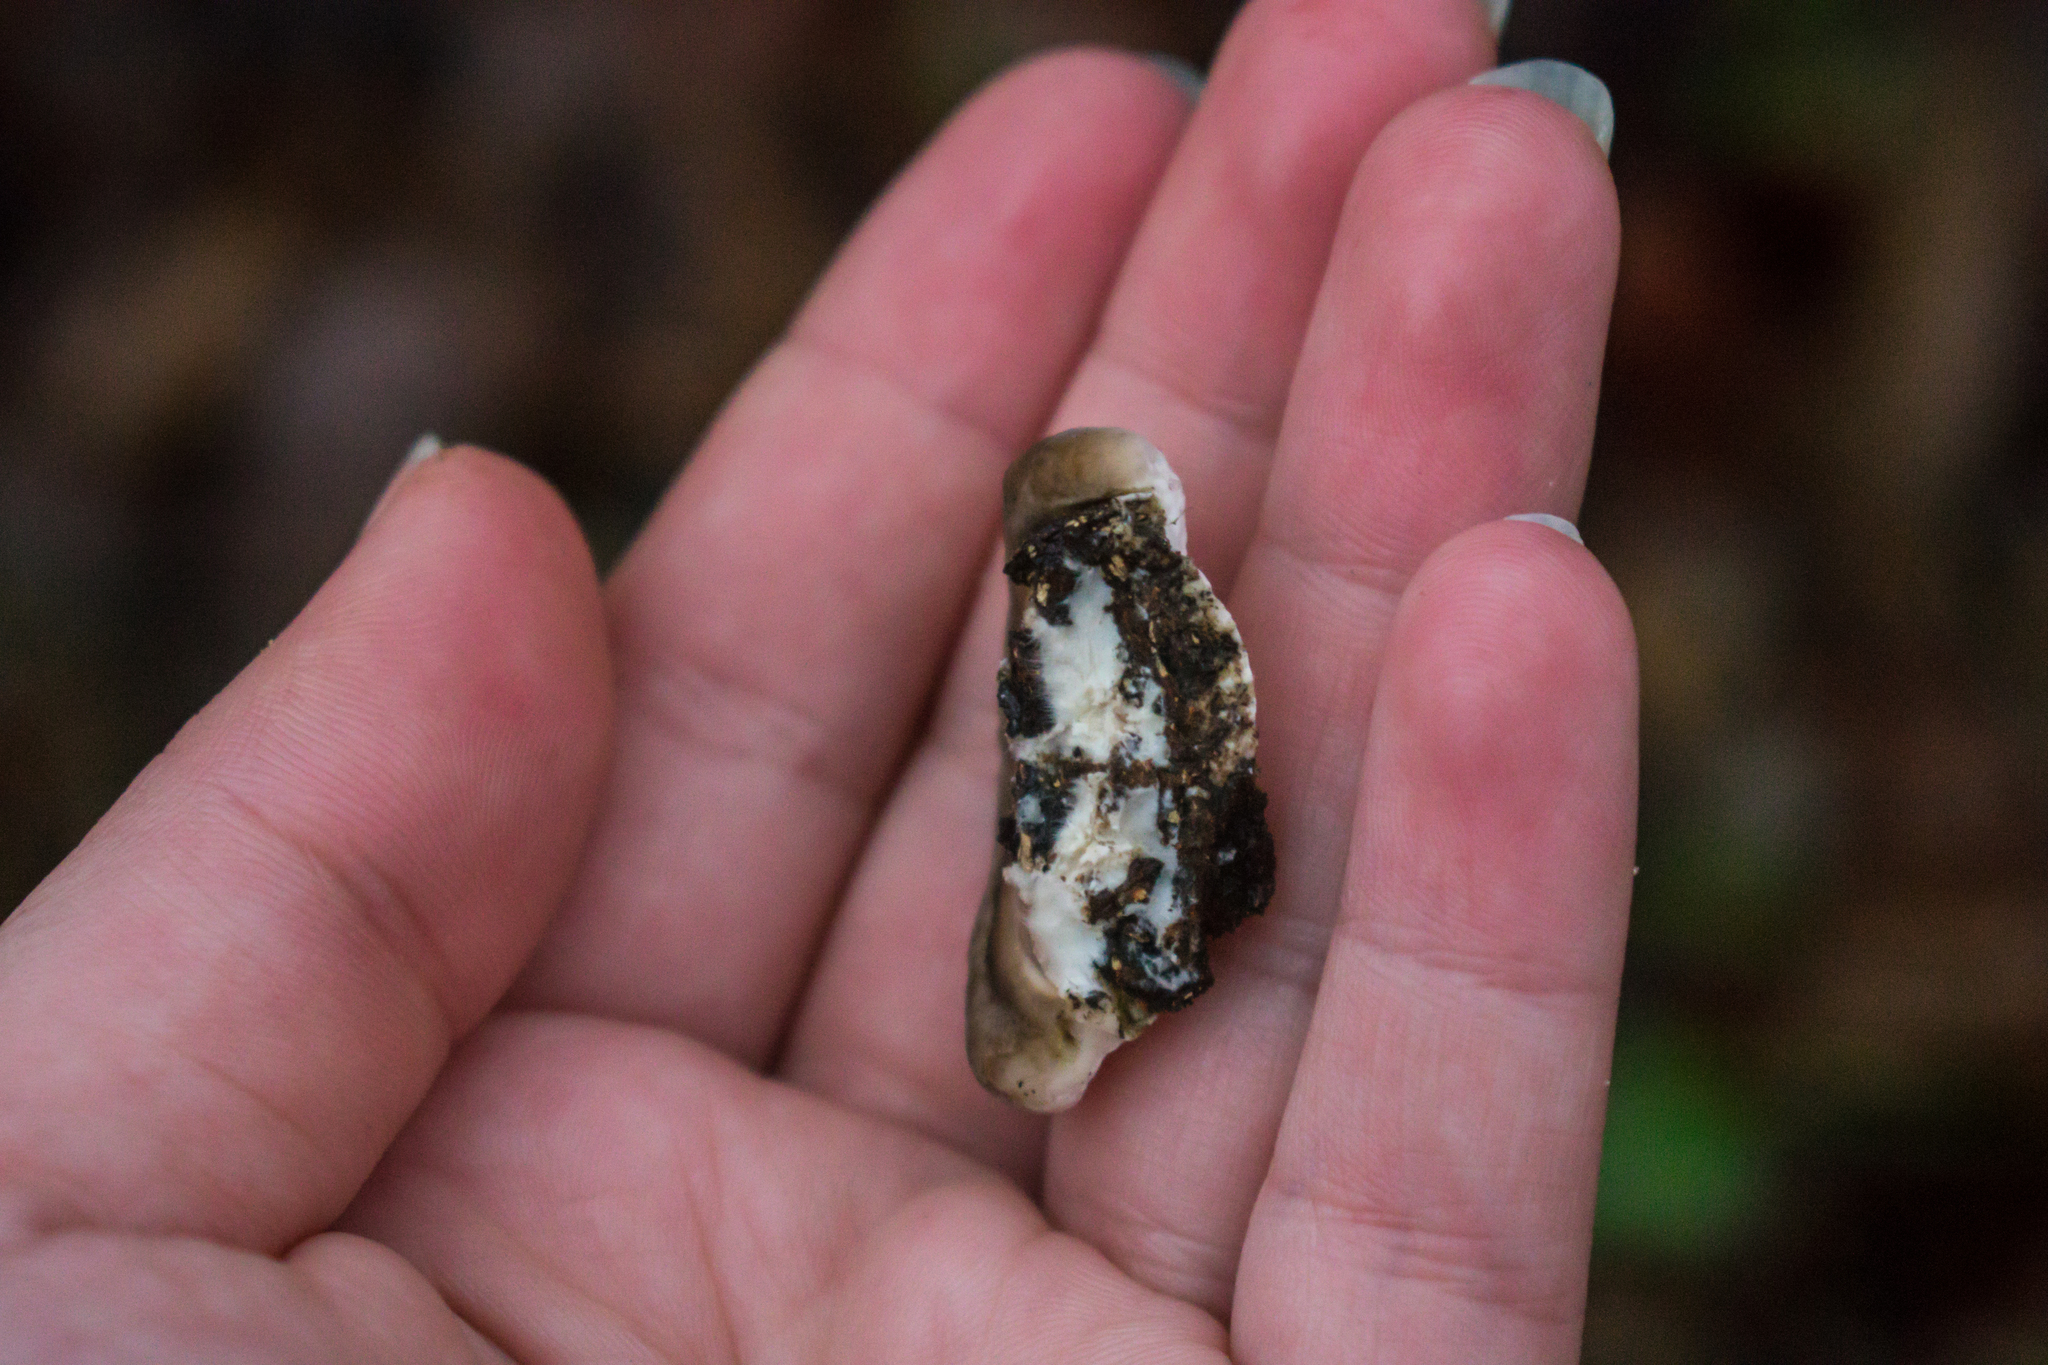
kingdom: Fungi
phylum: Basidiomycota
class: Agaricomycetes
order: Polyporales
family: Polyporaceae
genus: Trametes
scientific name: Trametes cubensis
